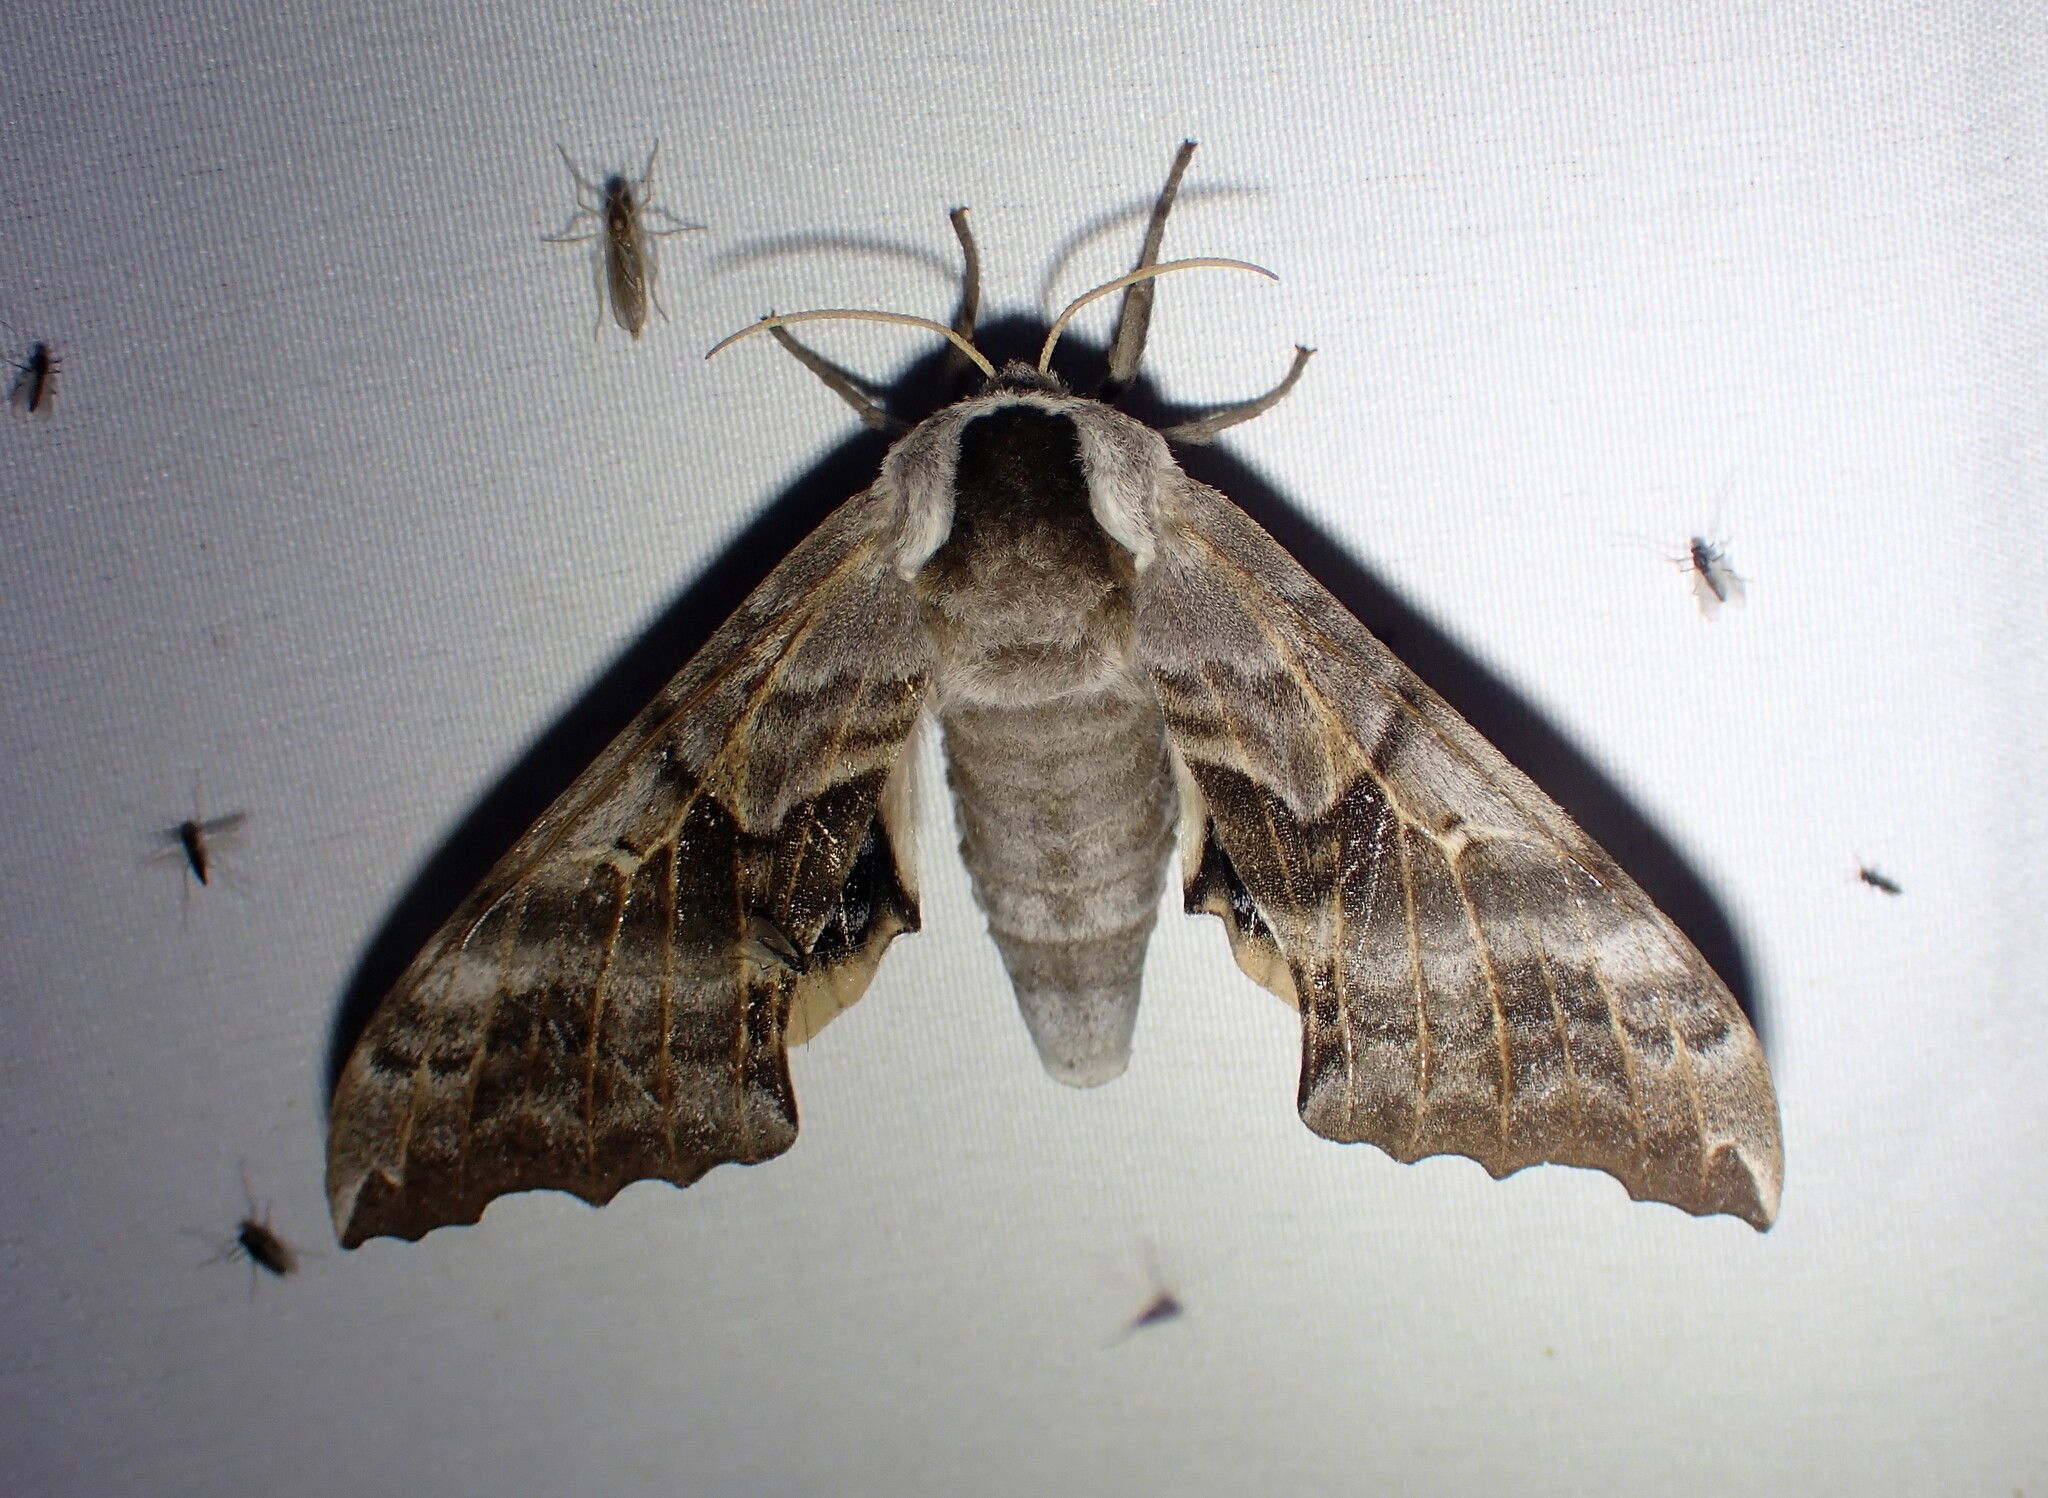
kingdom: Animalia
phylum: Arthropoda
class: Insecta
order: Lepidoptera
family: Sphingidae
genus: Smerinthus
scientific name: Smerinthus cerisyi
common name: Cerisy's sphinx moth
